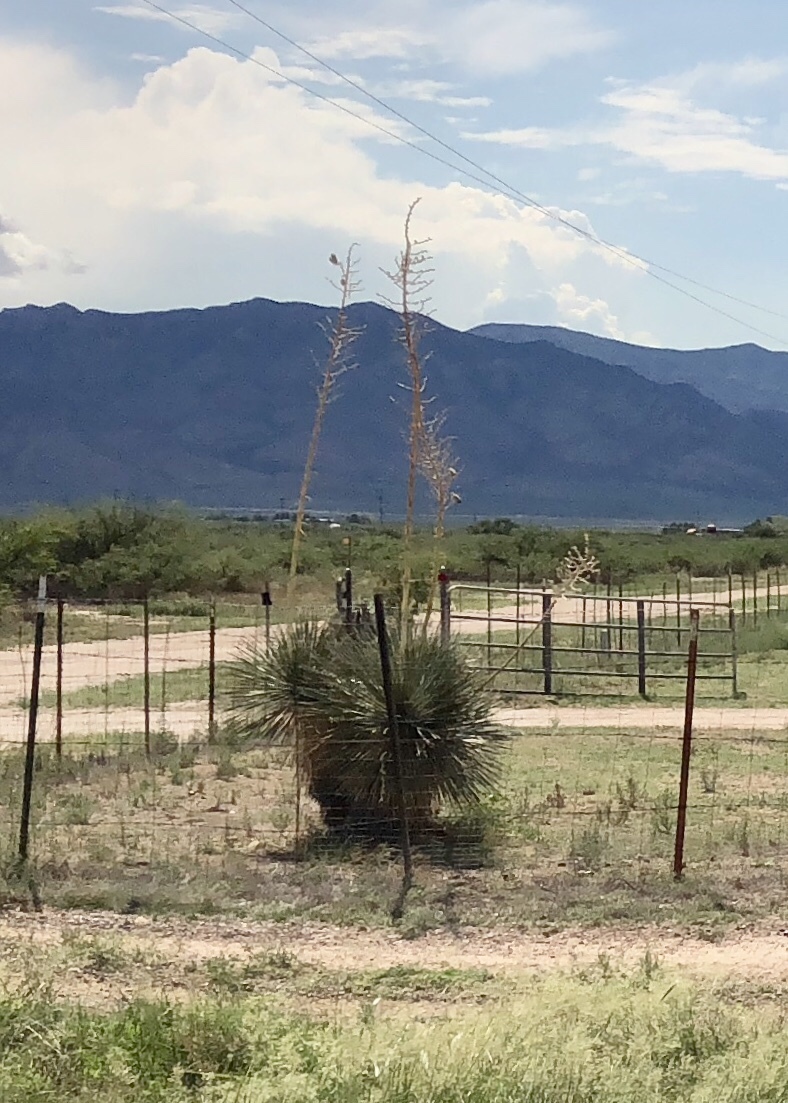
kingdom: Plantae
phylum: Tracheophyta
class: Liliopsida
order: Asparagales
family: Asparagaceae
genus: Yucca
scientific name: Yucca elata
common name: Palmella
